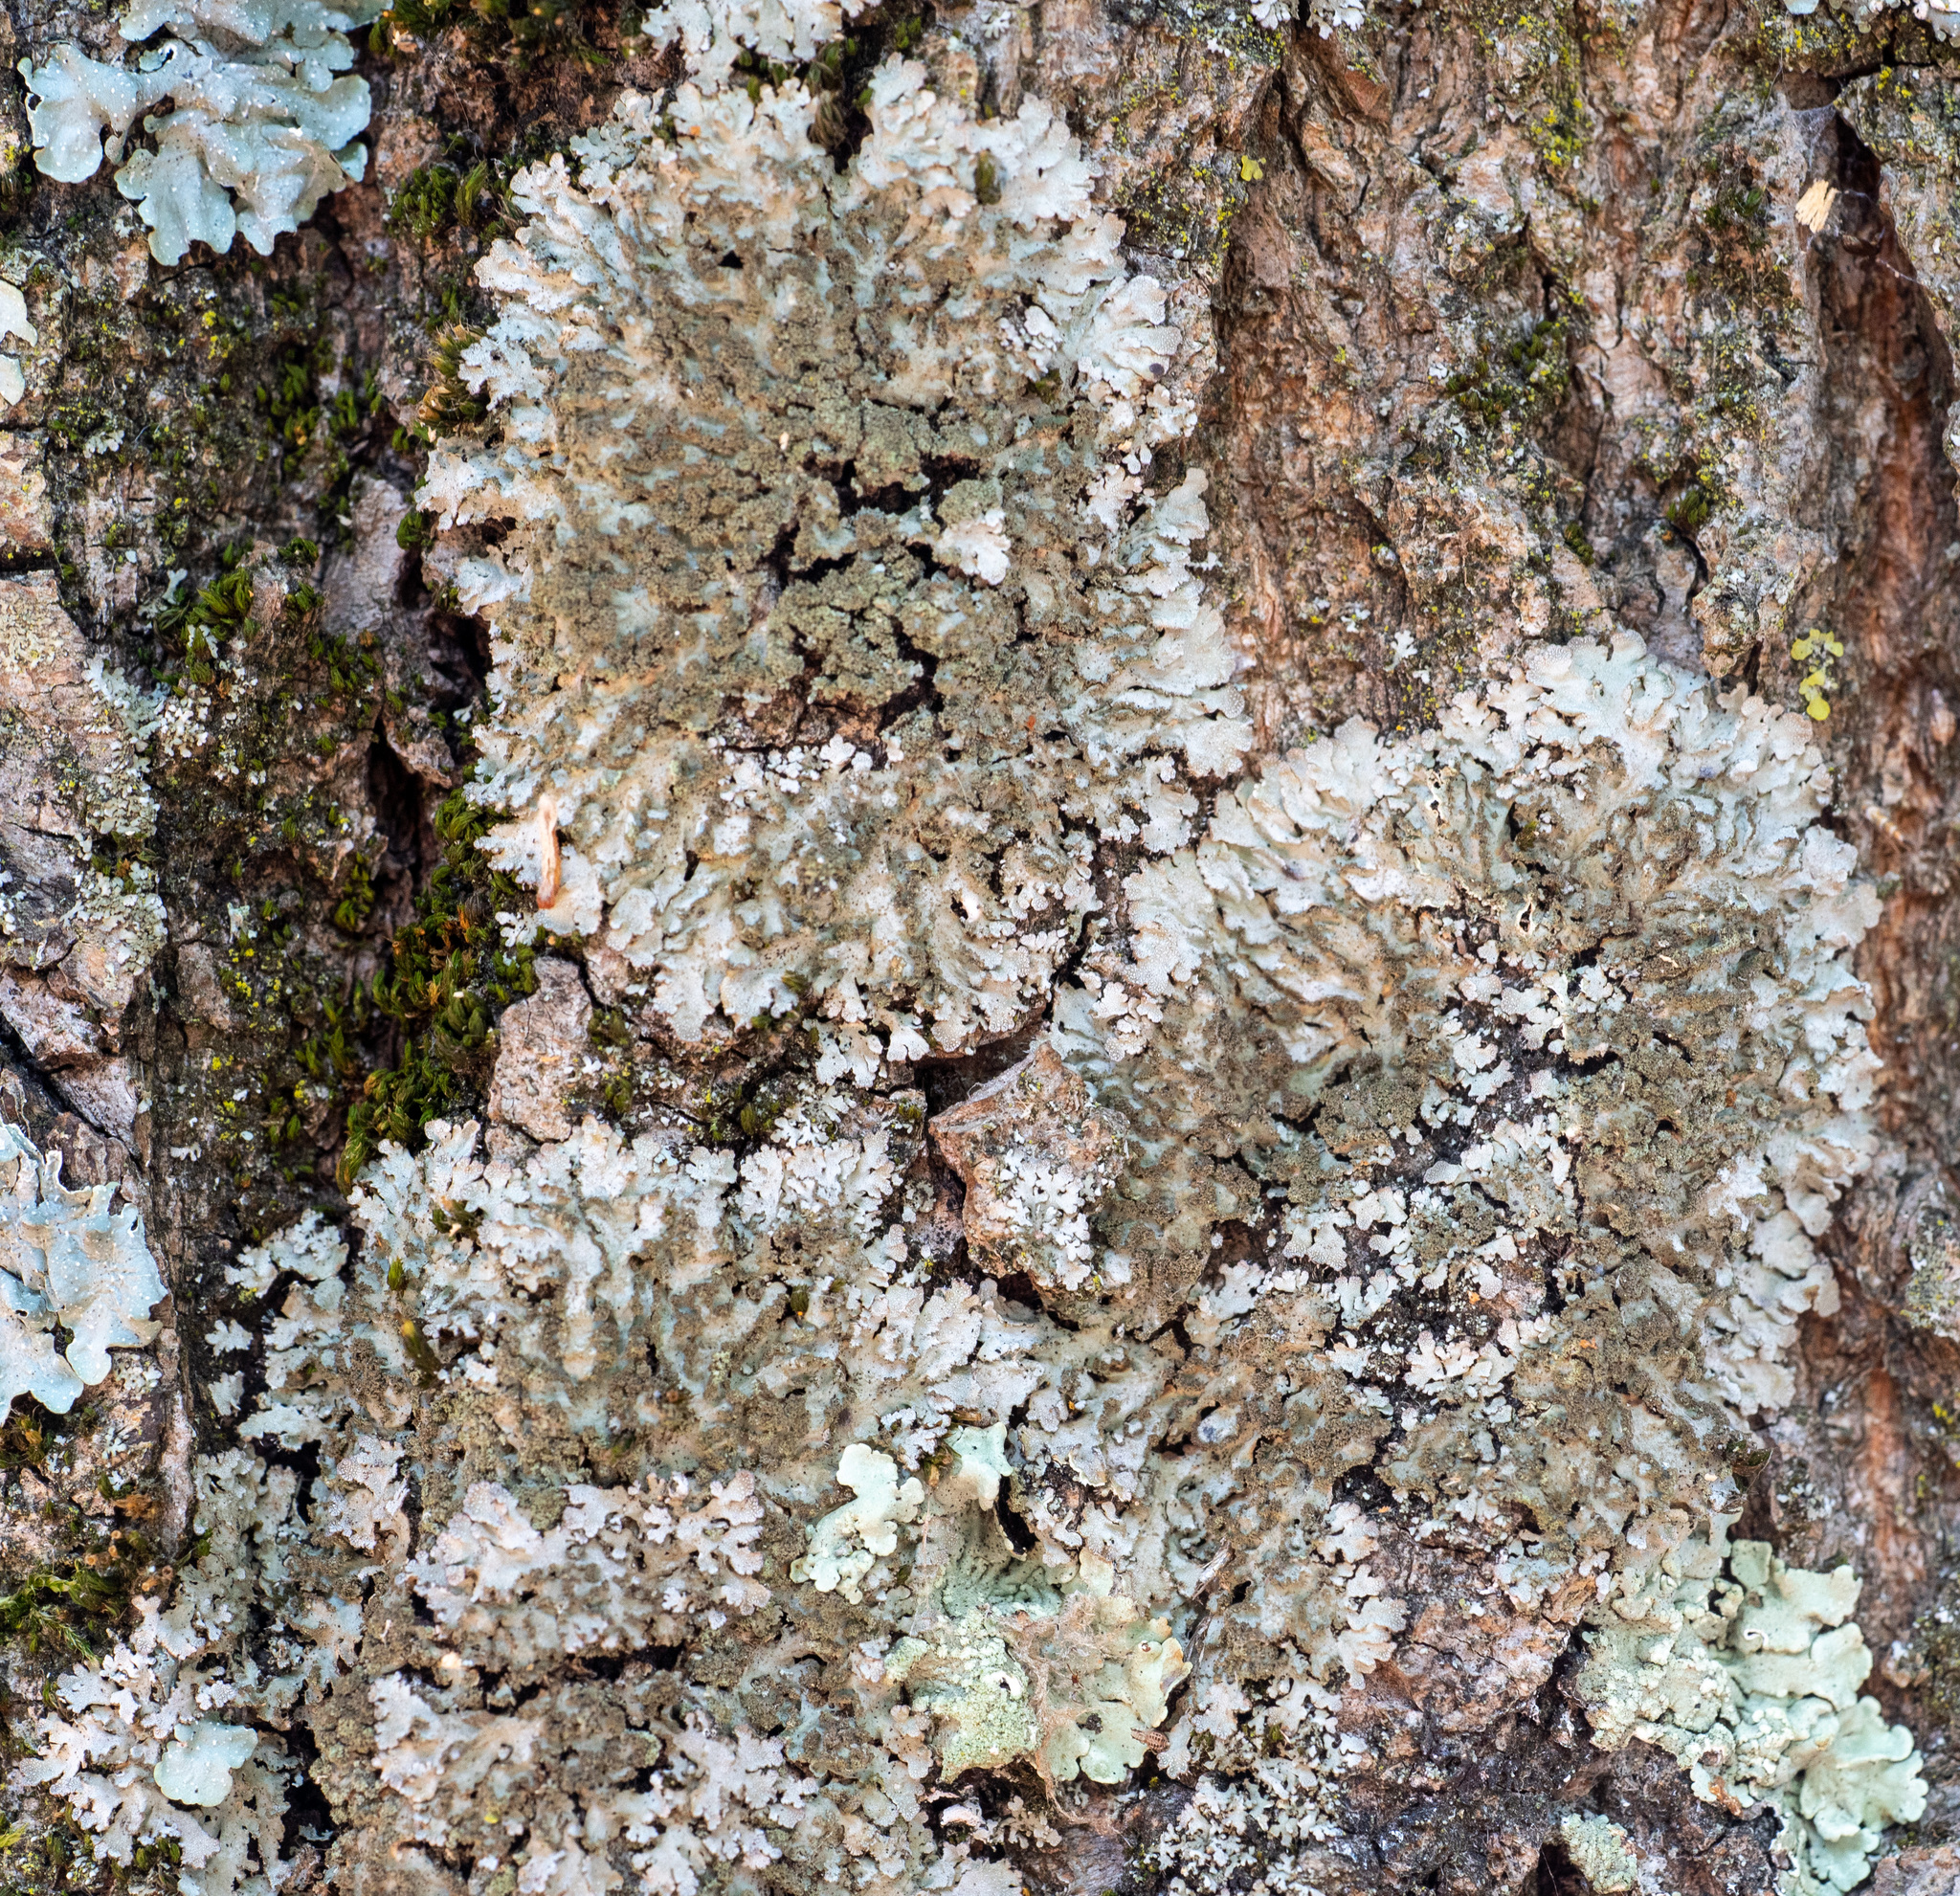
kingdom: Fungi
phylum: Ascomycota
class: Lecanoromycetes
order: Caliciales
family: Physciaceae
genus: Poeltonia
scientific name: Poeltonia grisea
